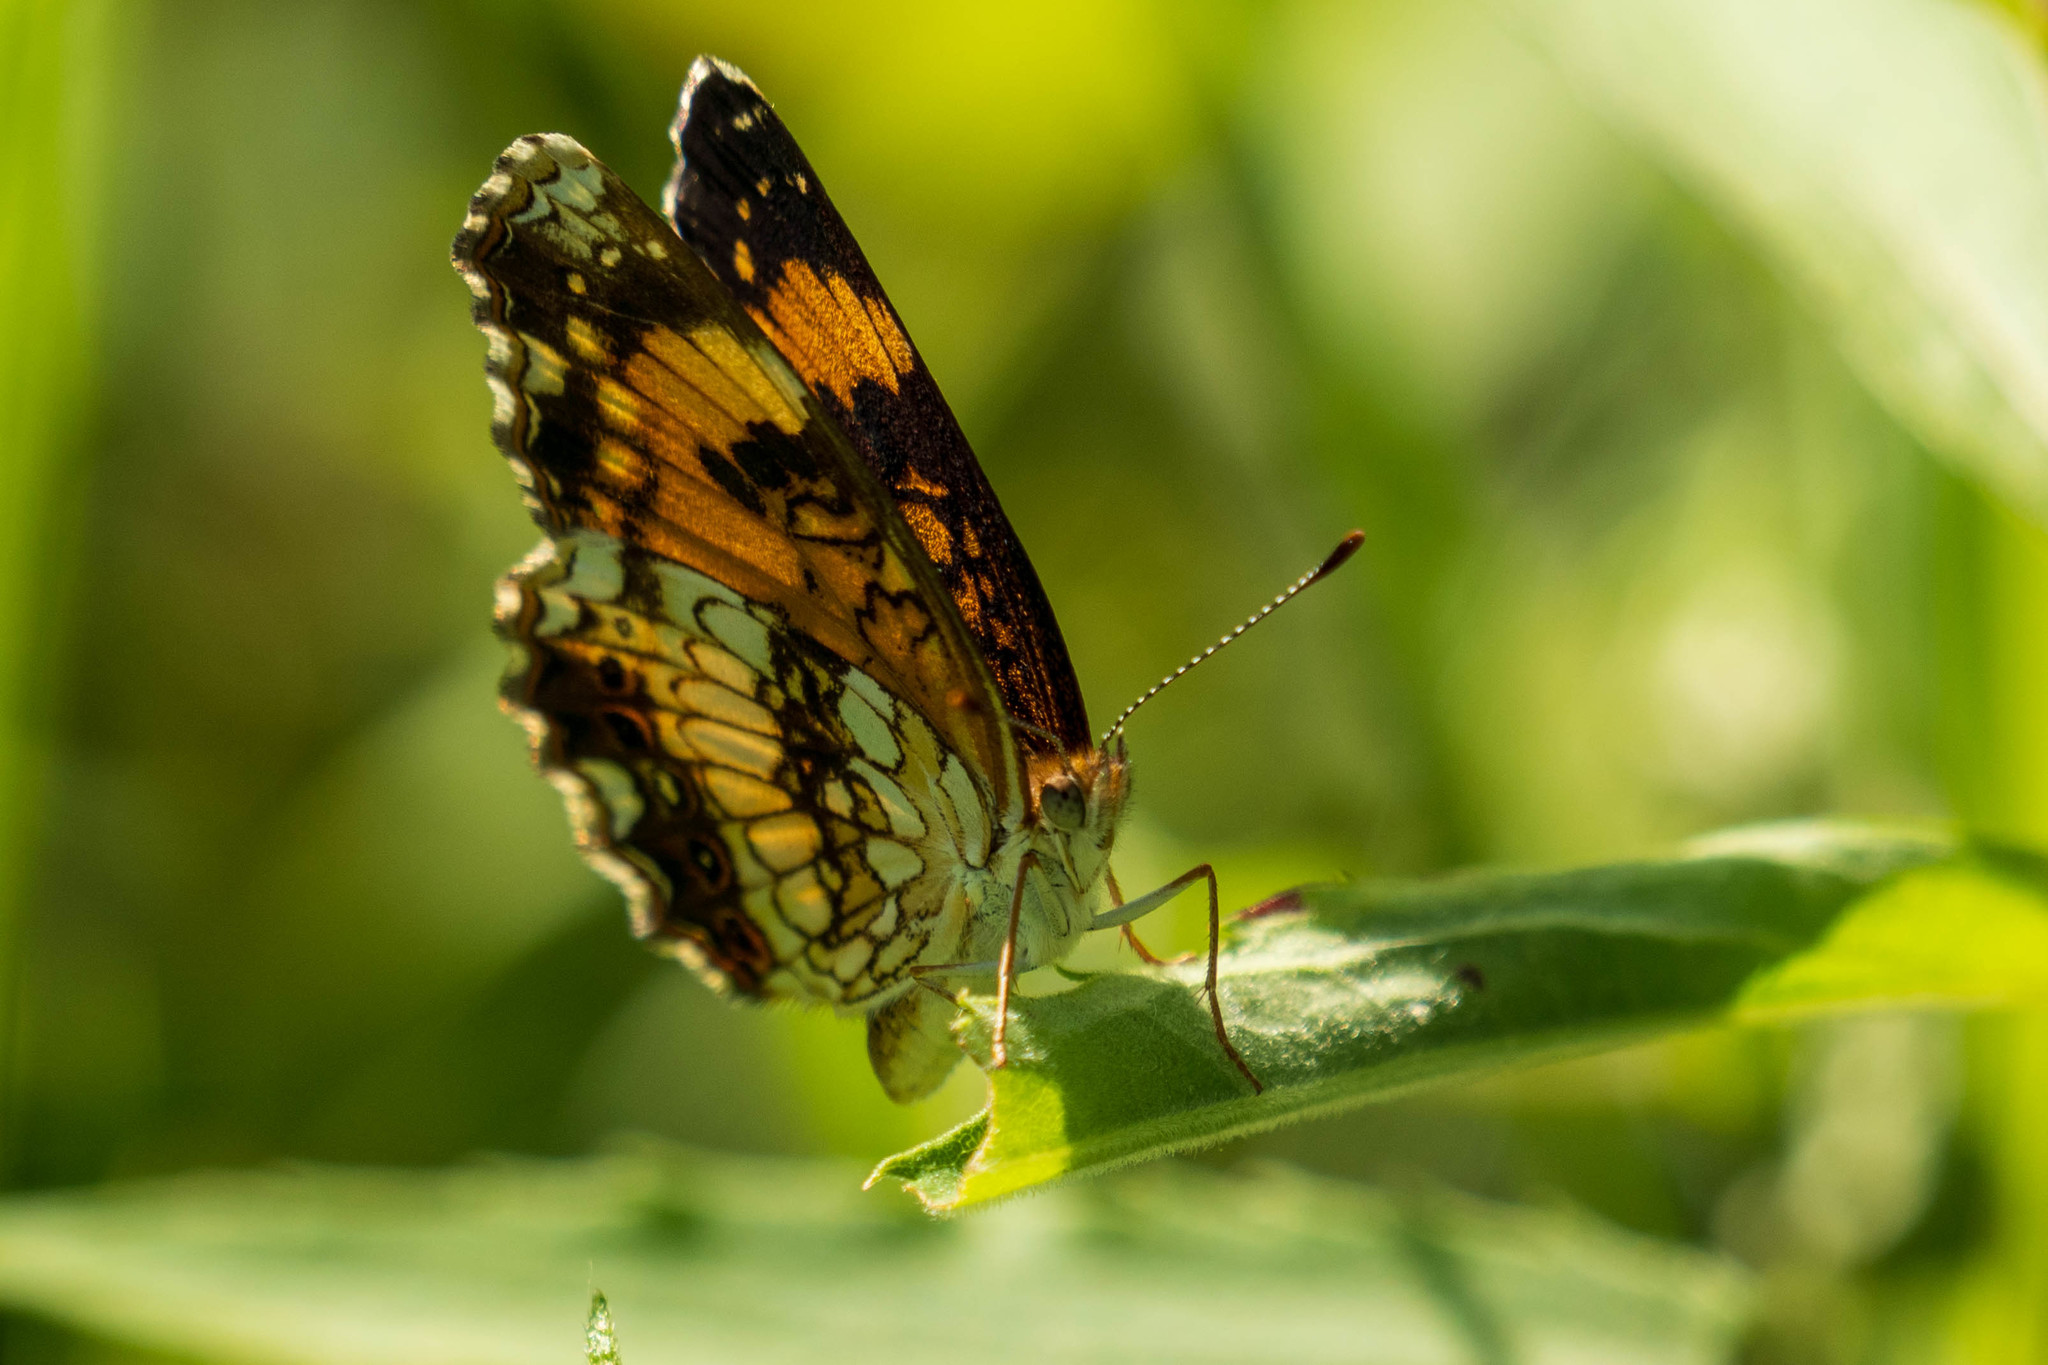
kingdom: Animalia
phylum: Arthropoda
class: Insecta
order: Lepidoptera
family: Nymphalidae
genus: Chlosyne
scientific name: Chlosyne nycteis
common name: Silvery checkerspot
